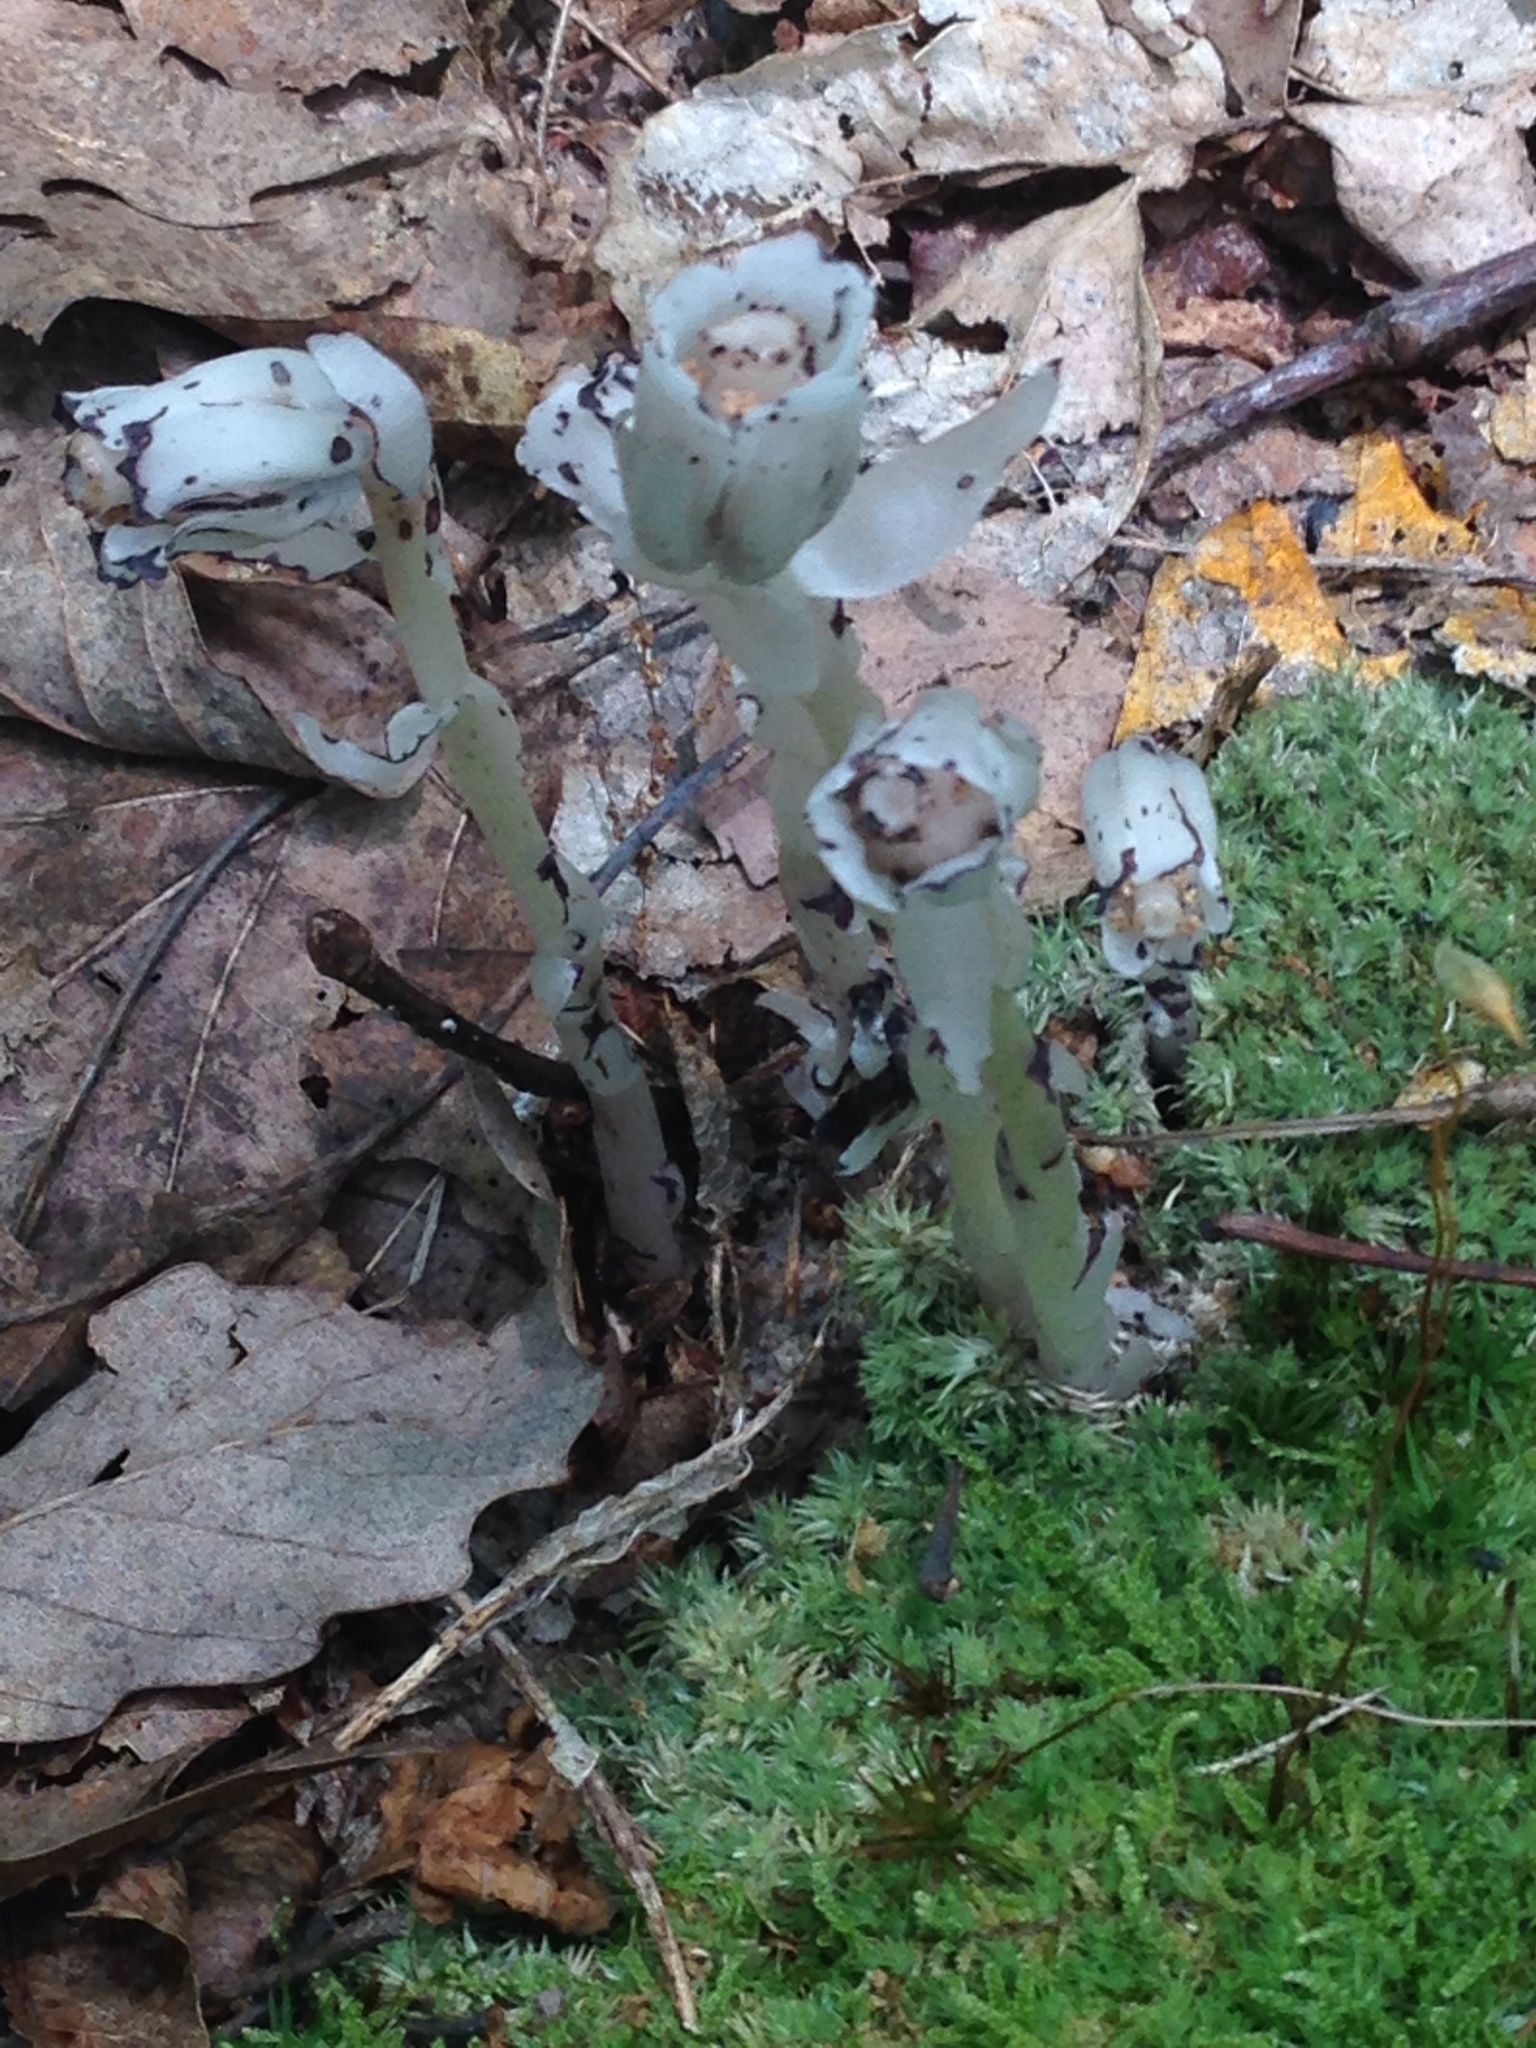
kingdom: Plantae
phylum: Tracheophyta
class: Magnoliopsida
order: Ericales
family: Ericaceae
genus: Monotropa
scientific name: Monotropa uniflora
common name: Convulsion root
